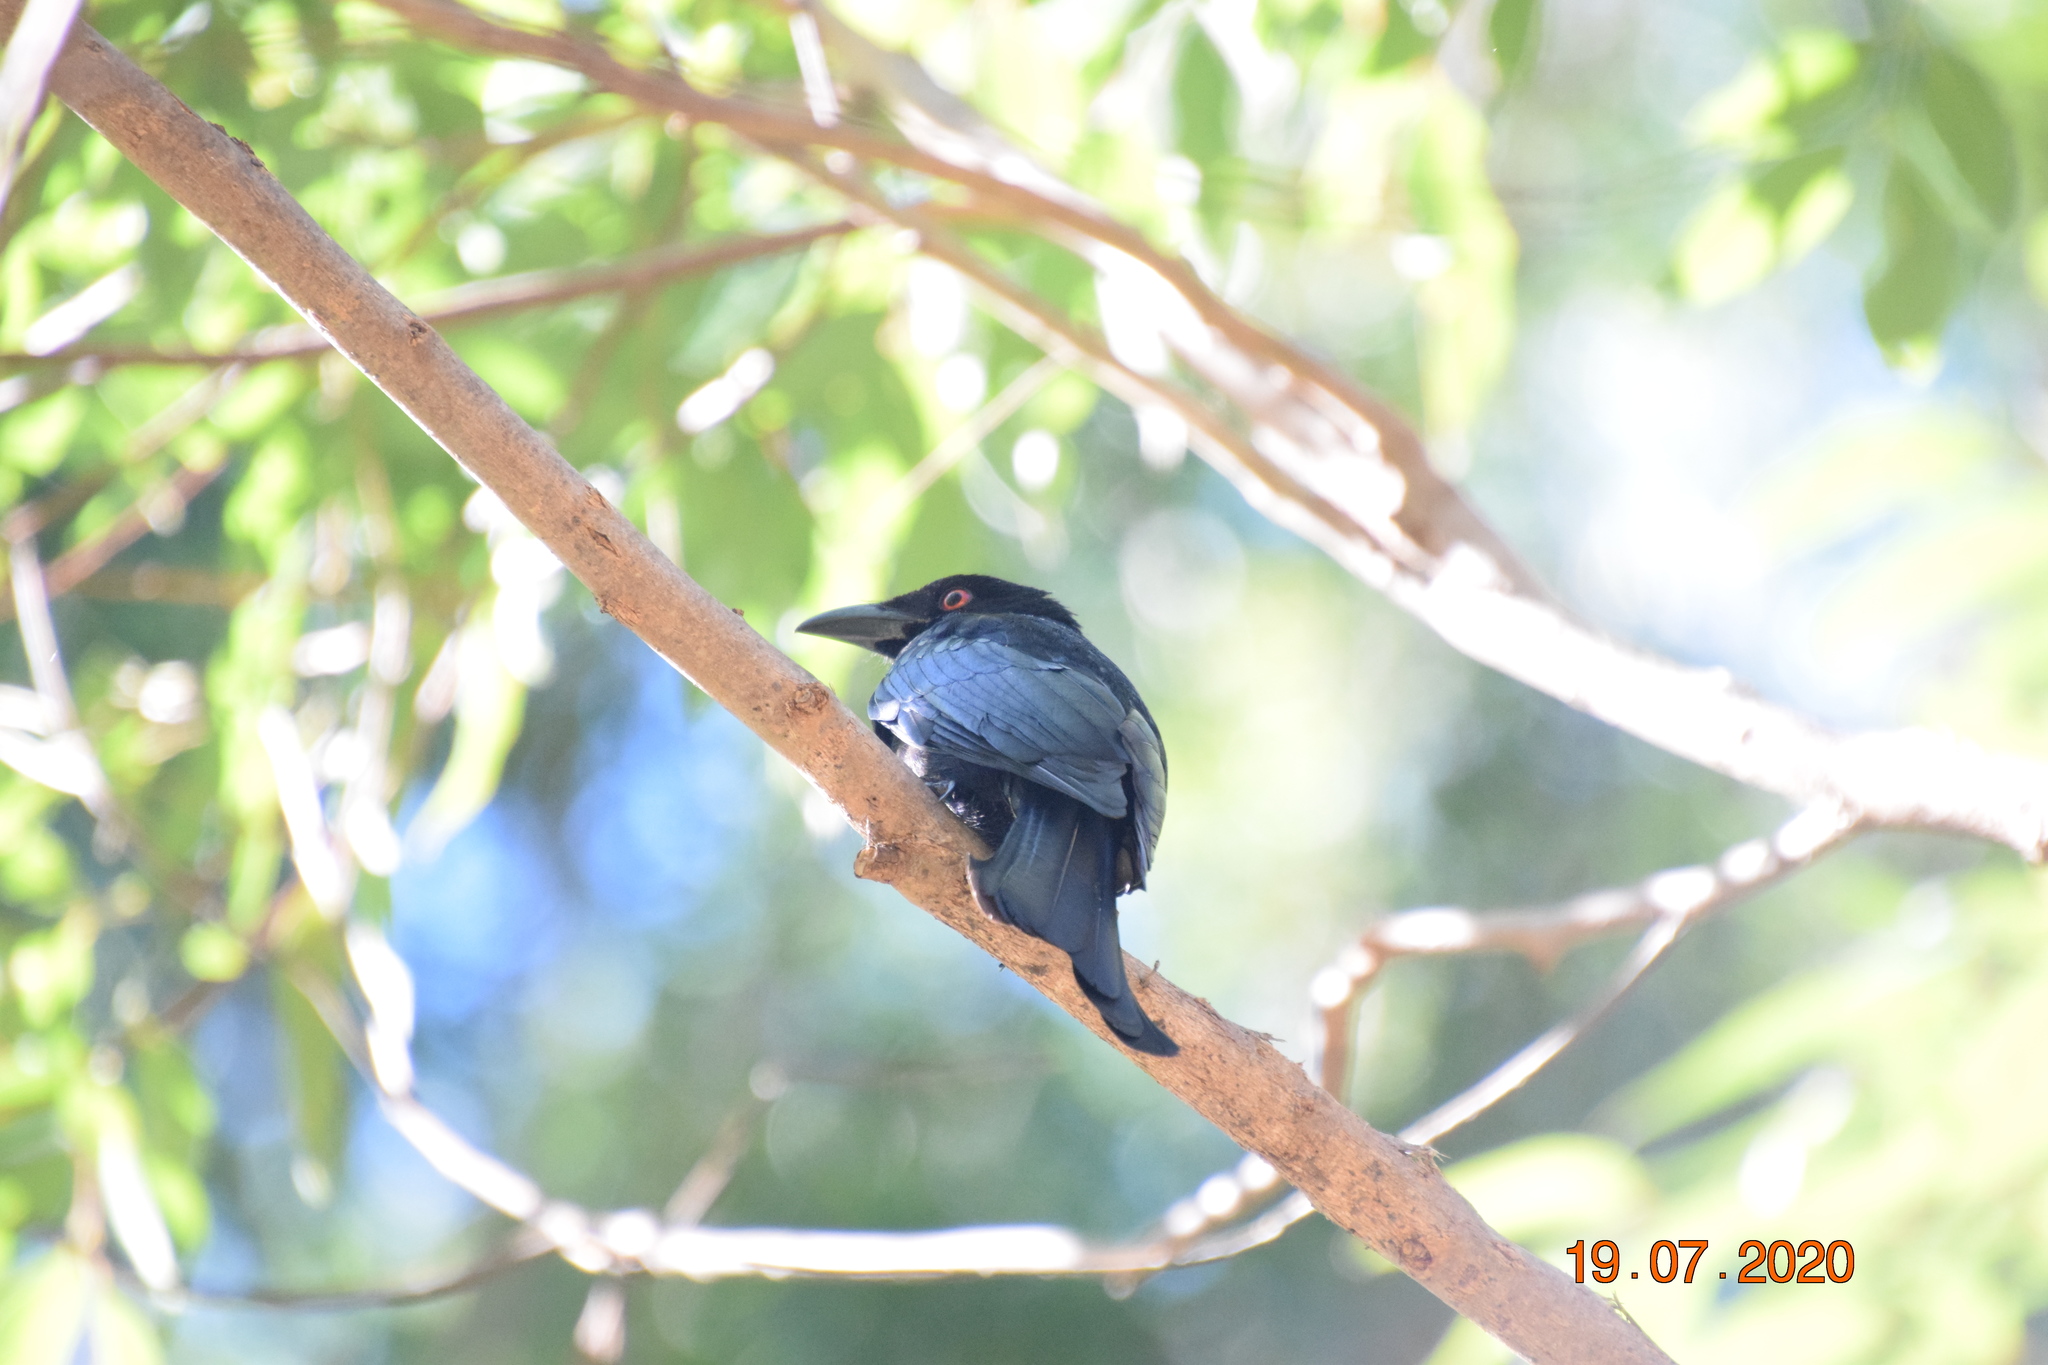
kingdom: Animalia
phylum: Chordata
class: Aves
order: Passeriformes
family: Dicruridae
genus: Dicrurus
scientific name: Dicrurus bracteatus
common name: Spangled drongo
